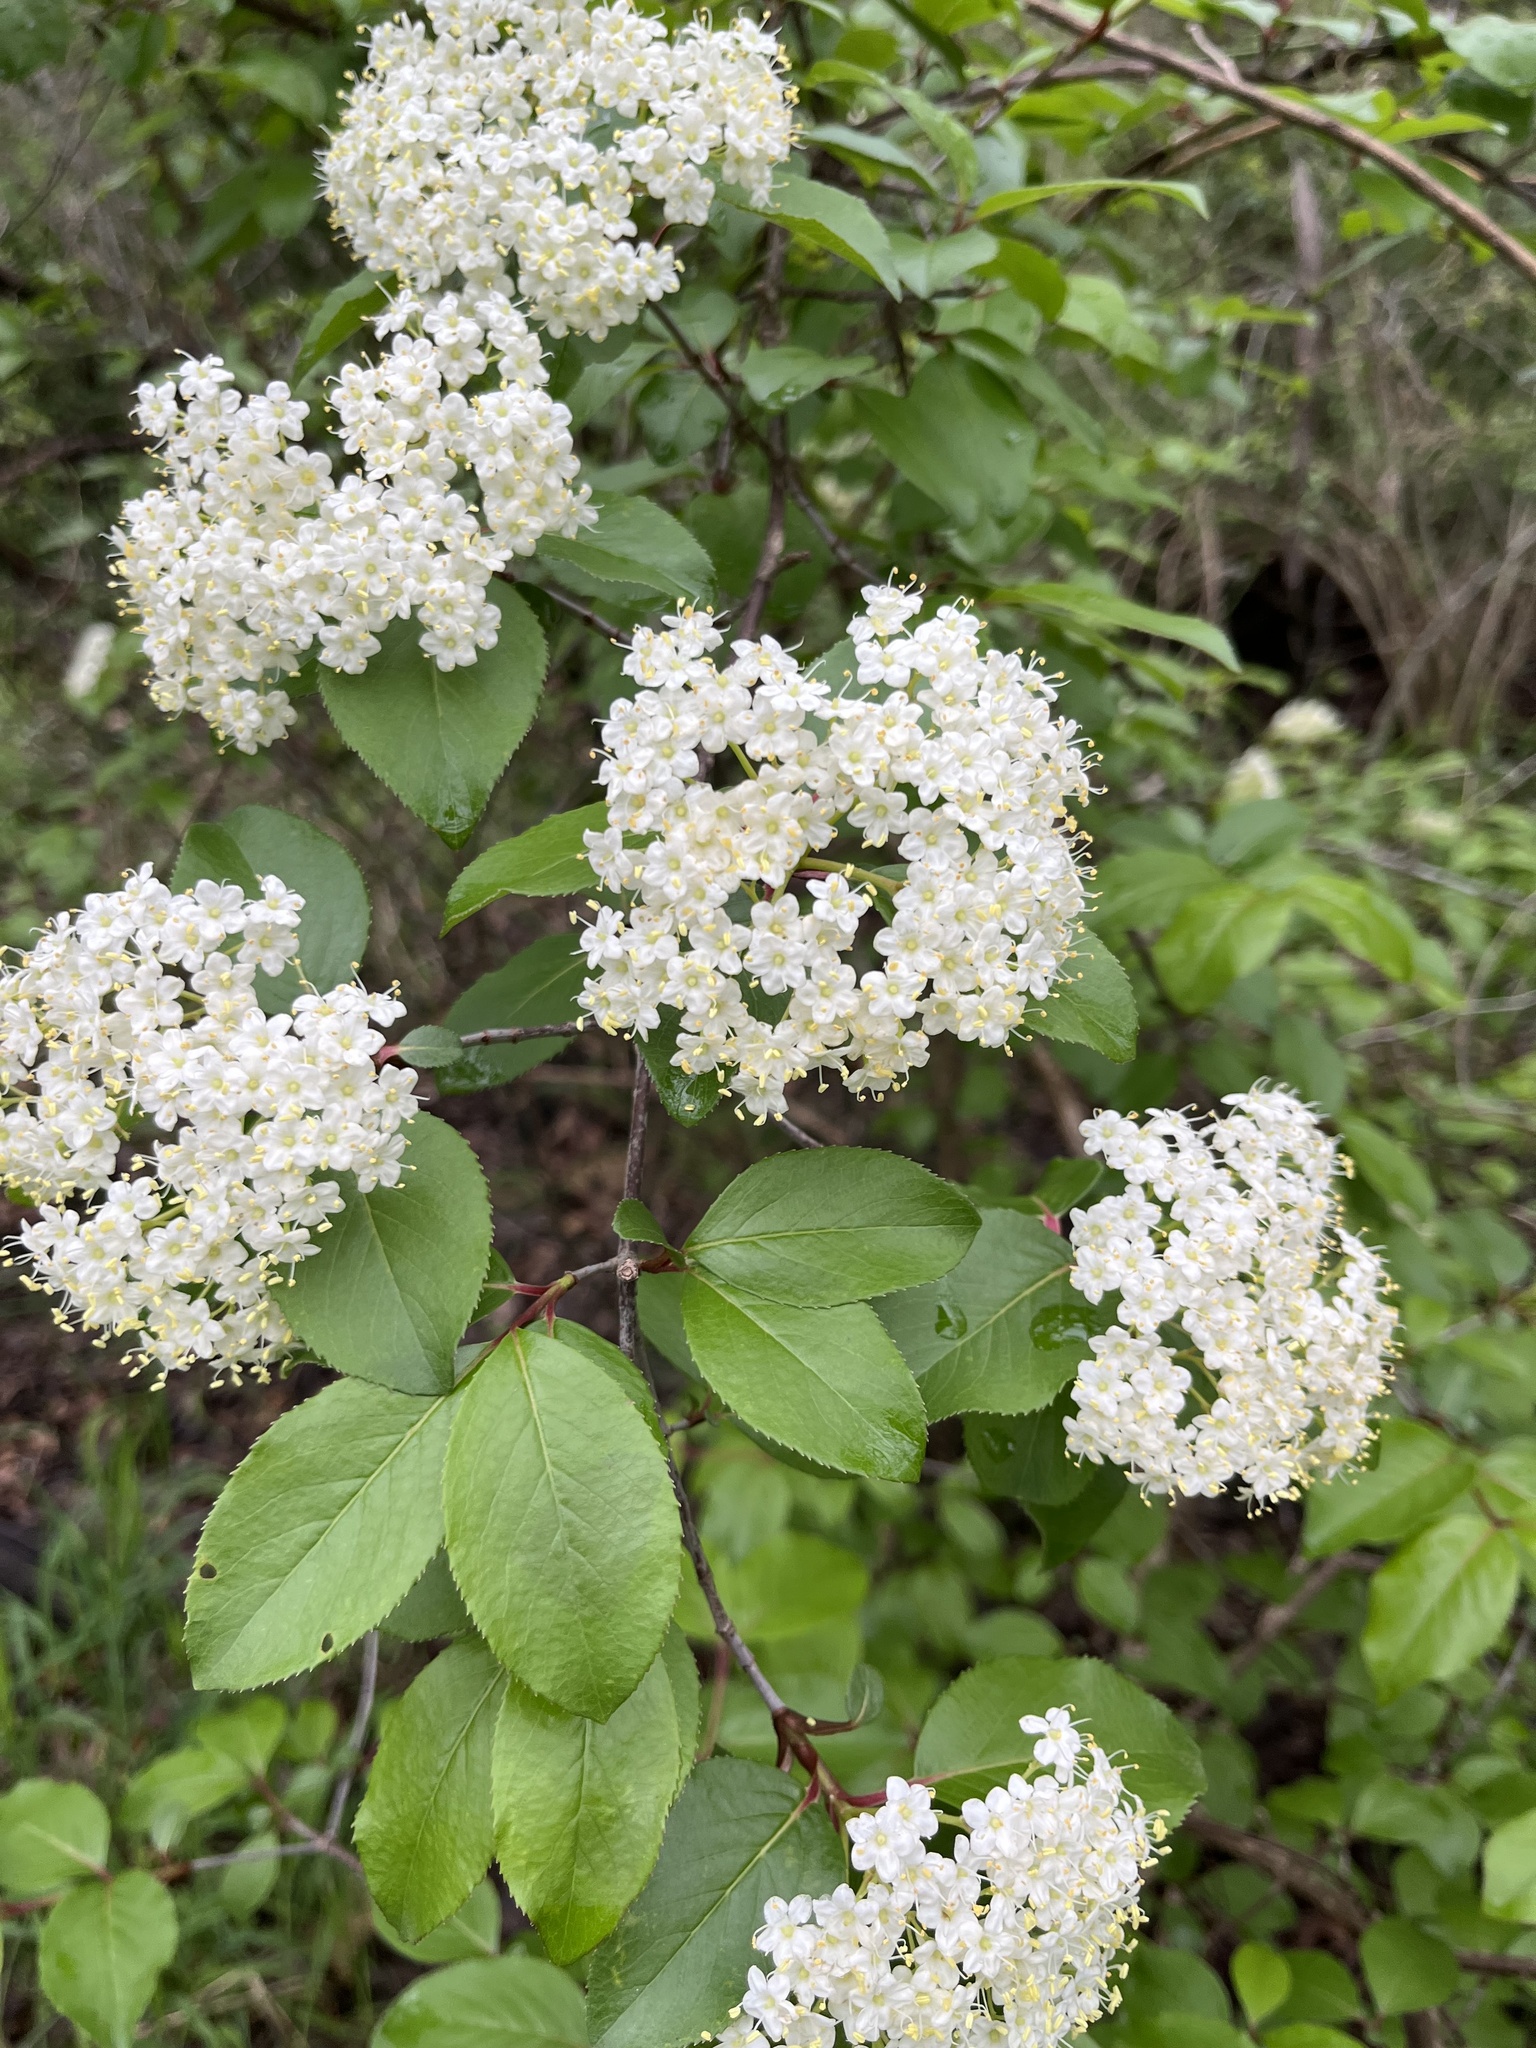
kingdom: Plantae
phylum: Tracheophyta
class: Magnoliopsida
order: Dipsacales
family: Viburnaceae
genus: Viburnum
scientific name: Viburnum rufidulum
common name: Blue haw
